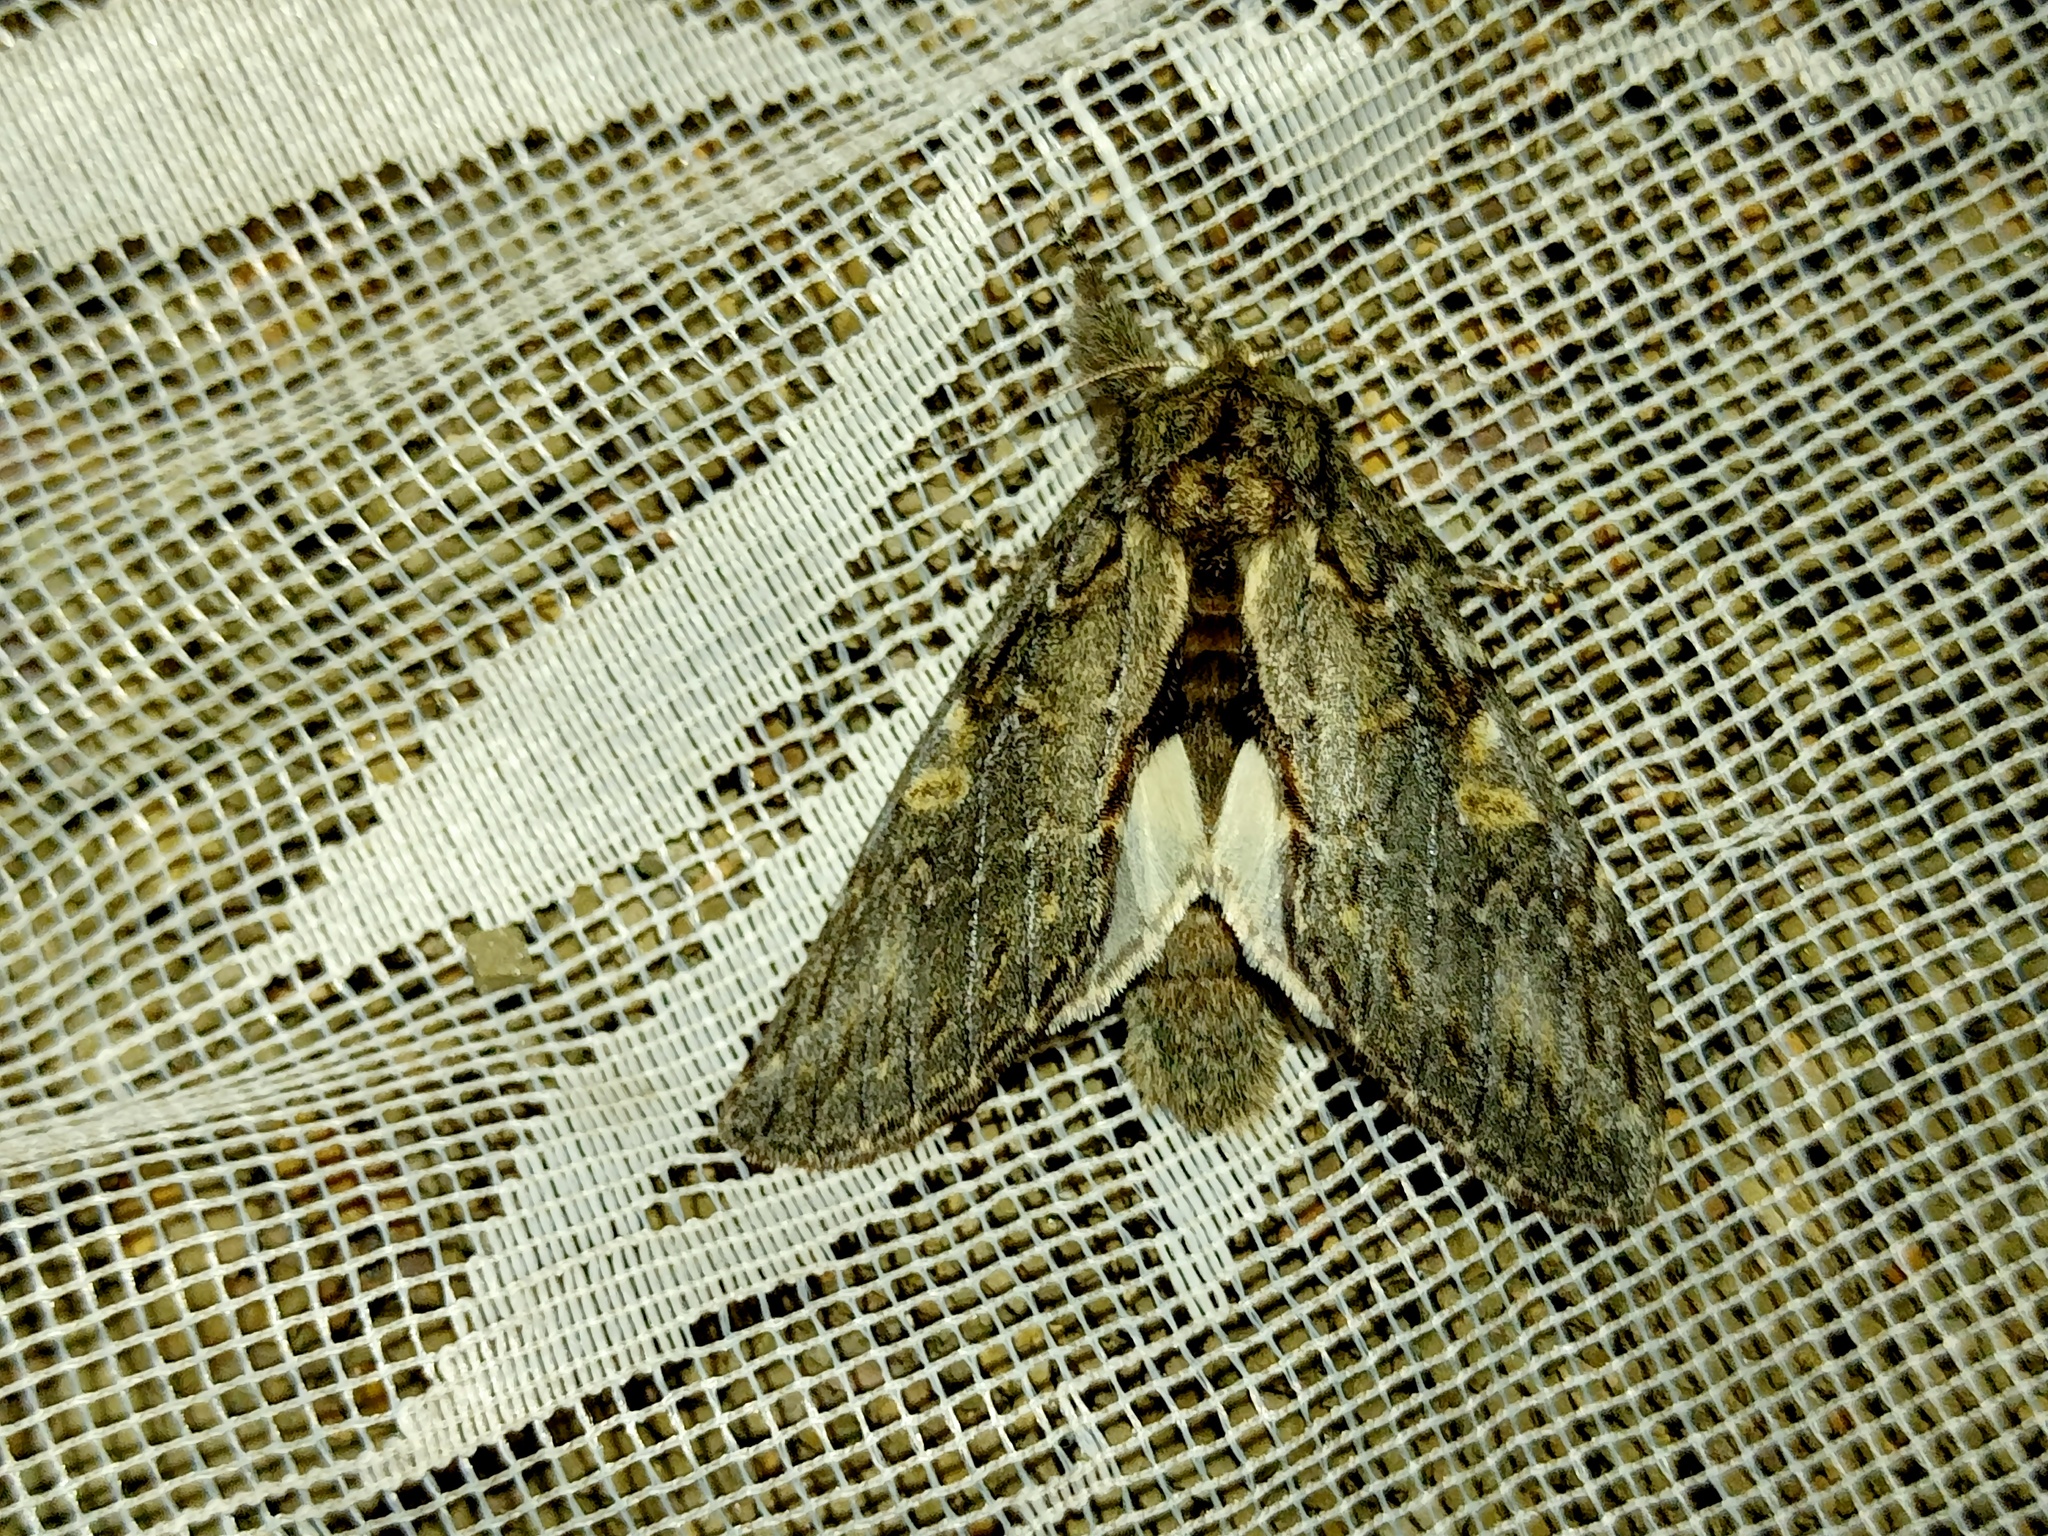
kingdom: Animalia
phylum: Arthropoda
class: Insecta
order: Lepidoptera
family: Notodontidae
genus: Peridea
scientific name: Peridea anceps
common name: Great prominent
